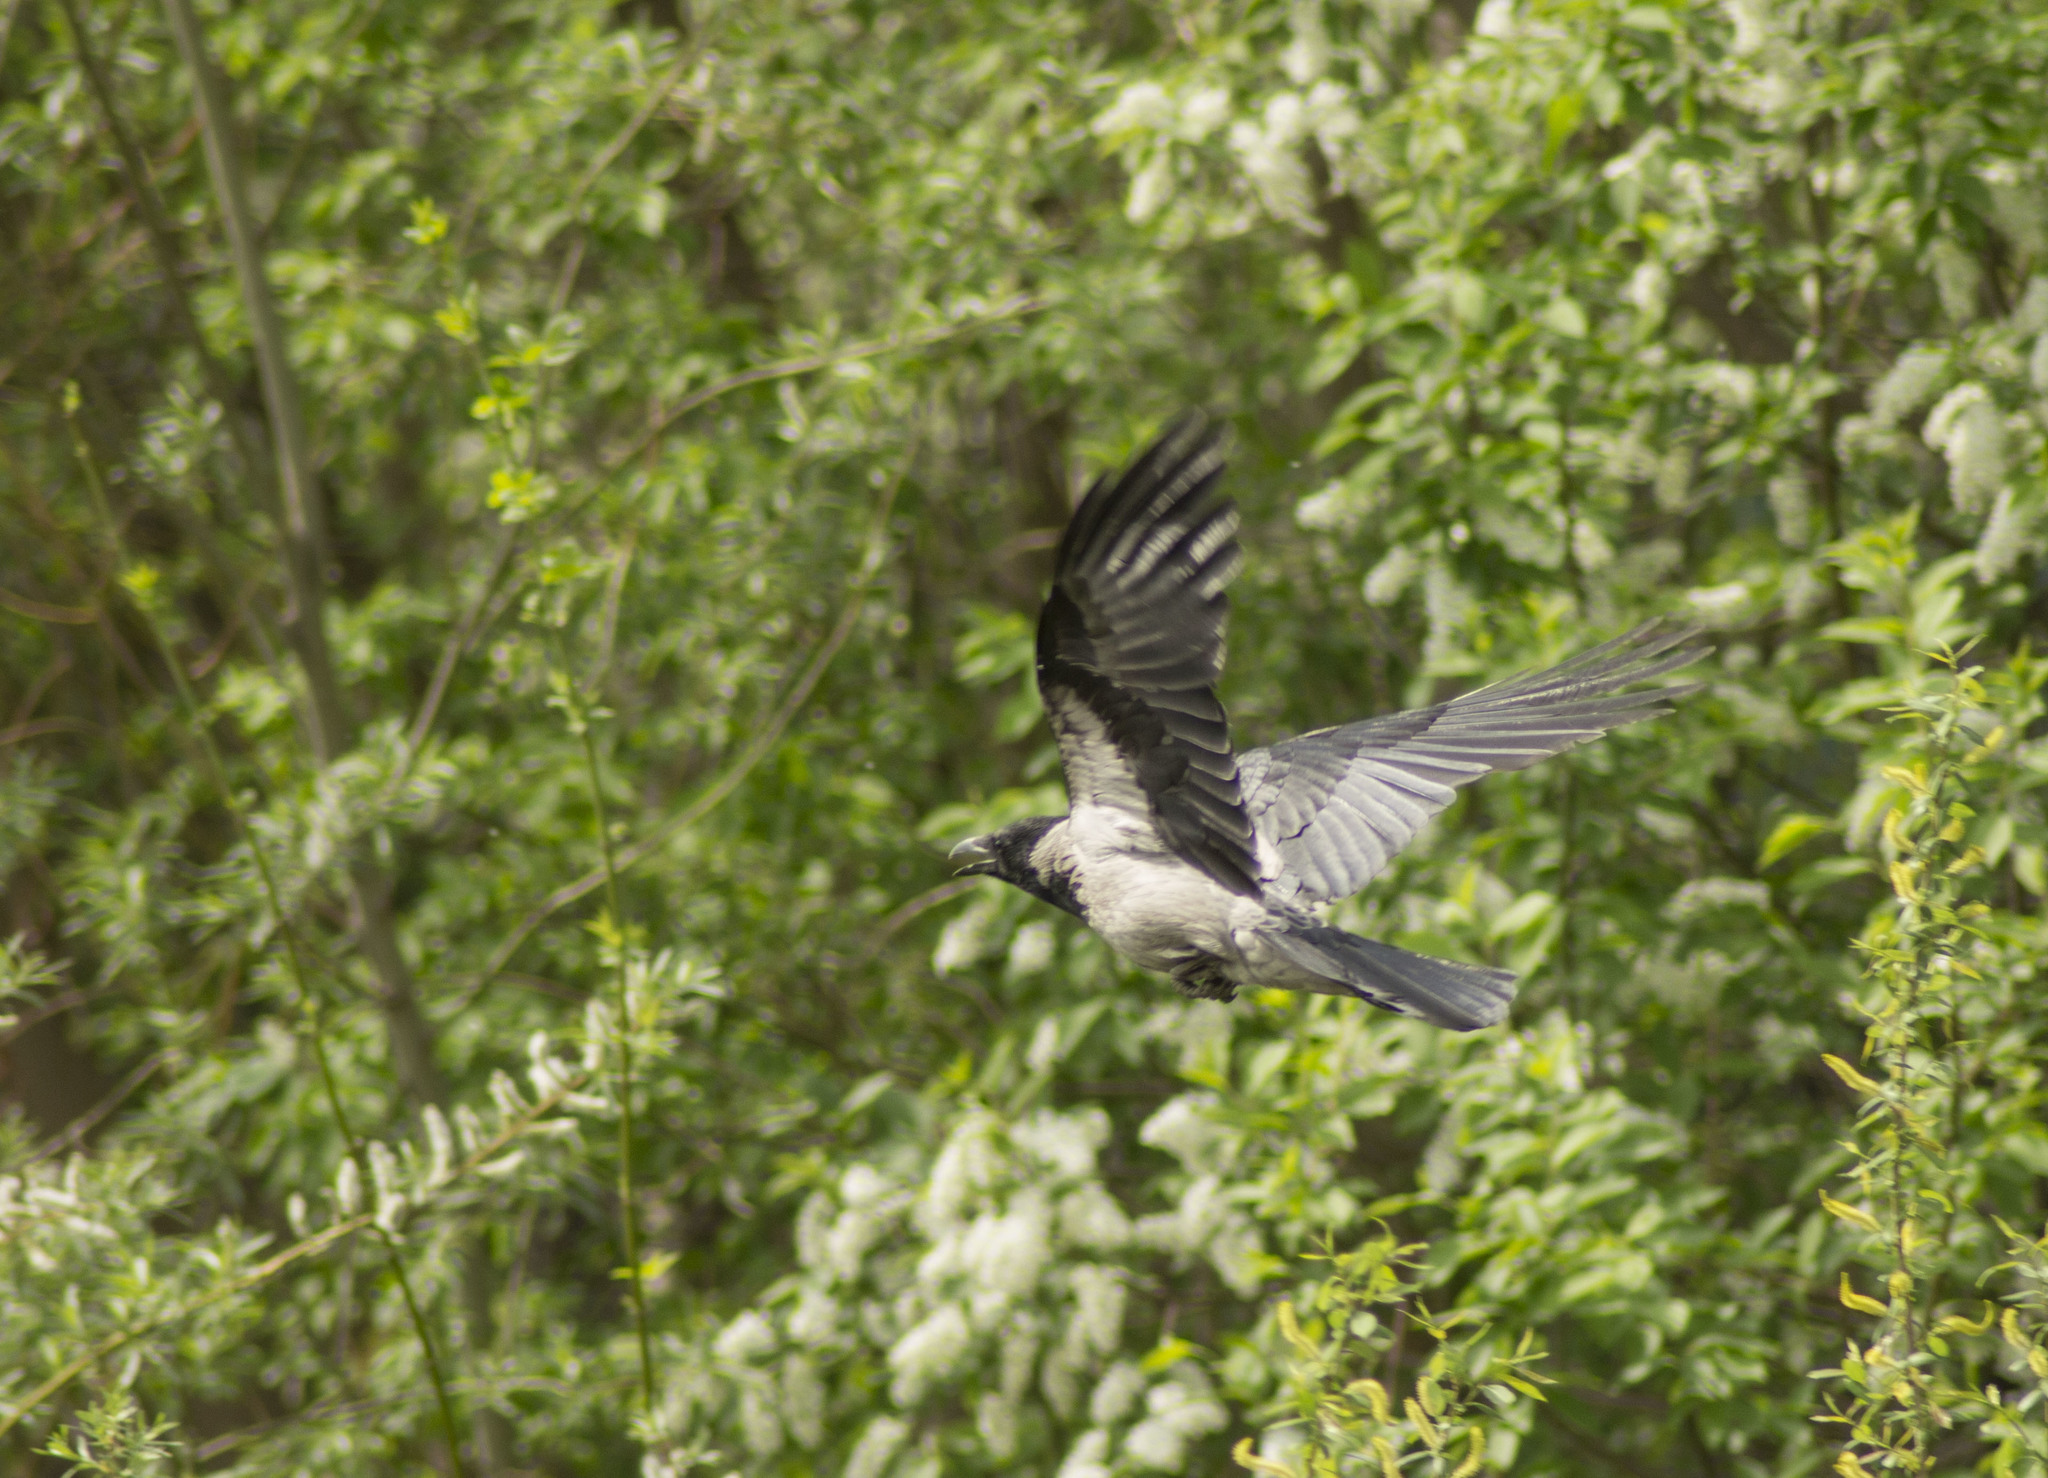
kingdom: Animalia
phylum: Chordata
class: Aves
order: Passeriformes
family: Corvidae
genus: Corvus
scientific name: Corvus cornix
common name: Hooded crow
